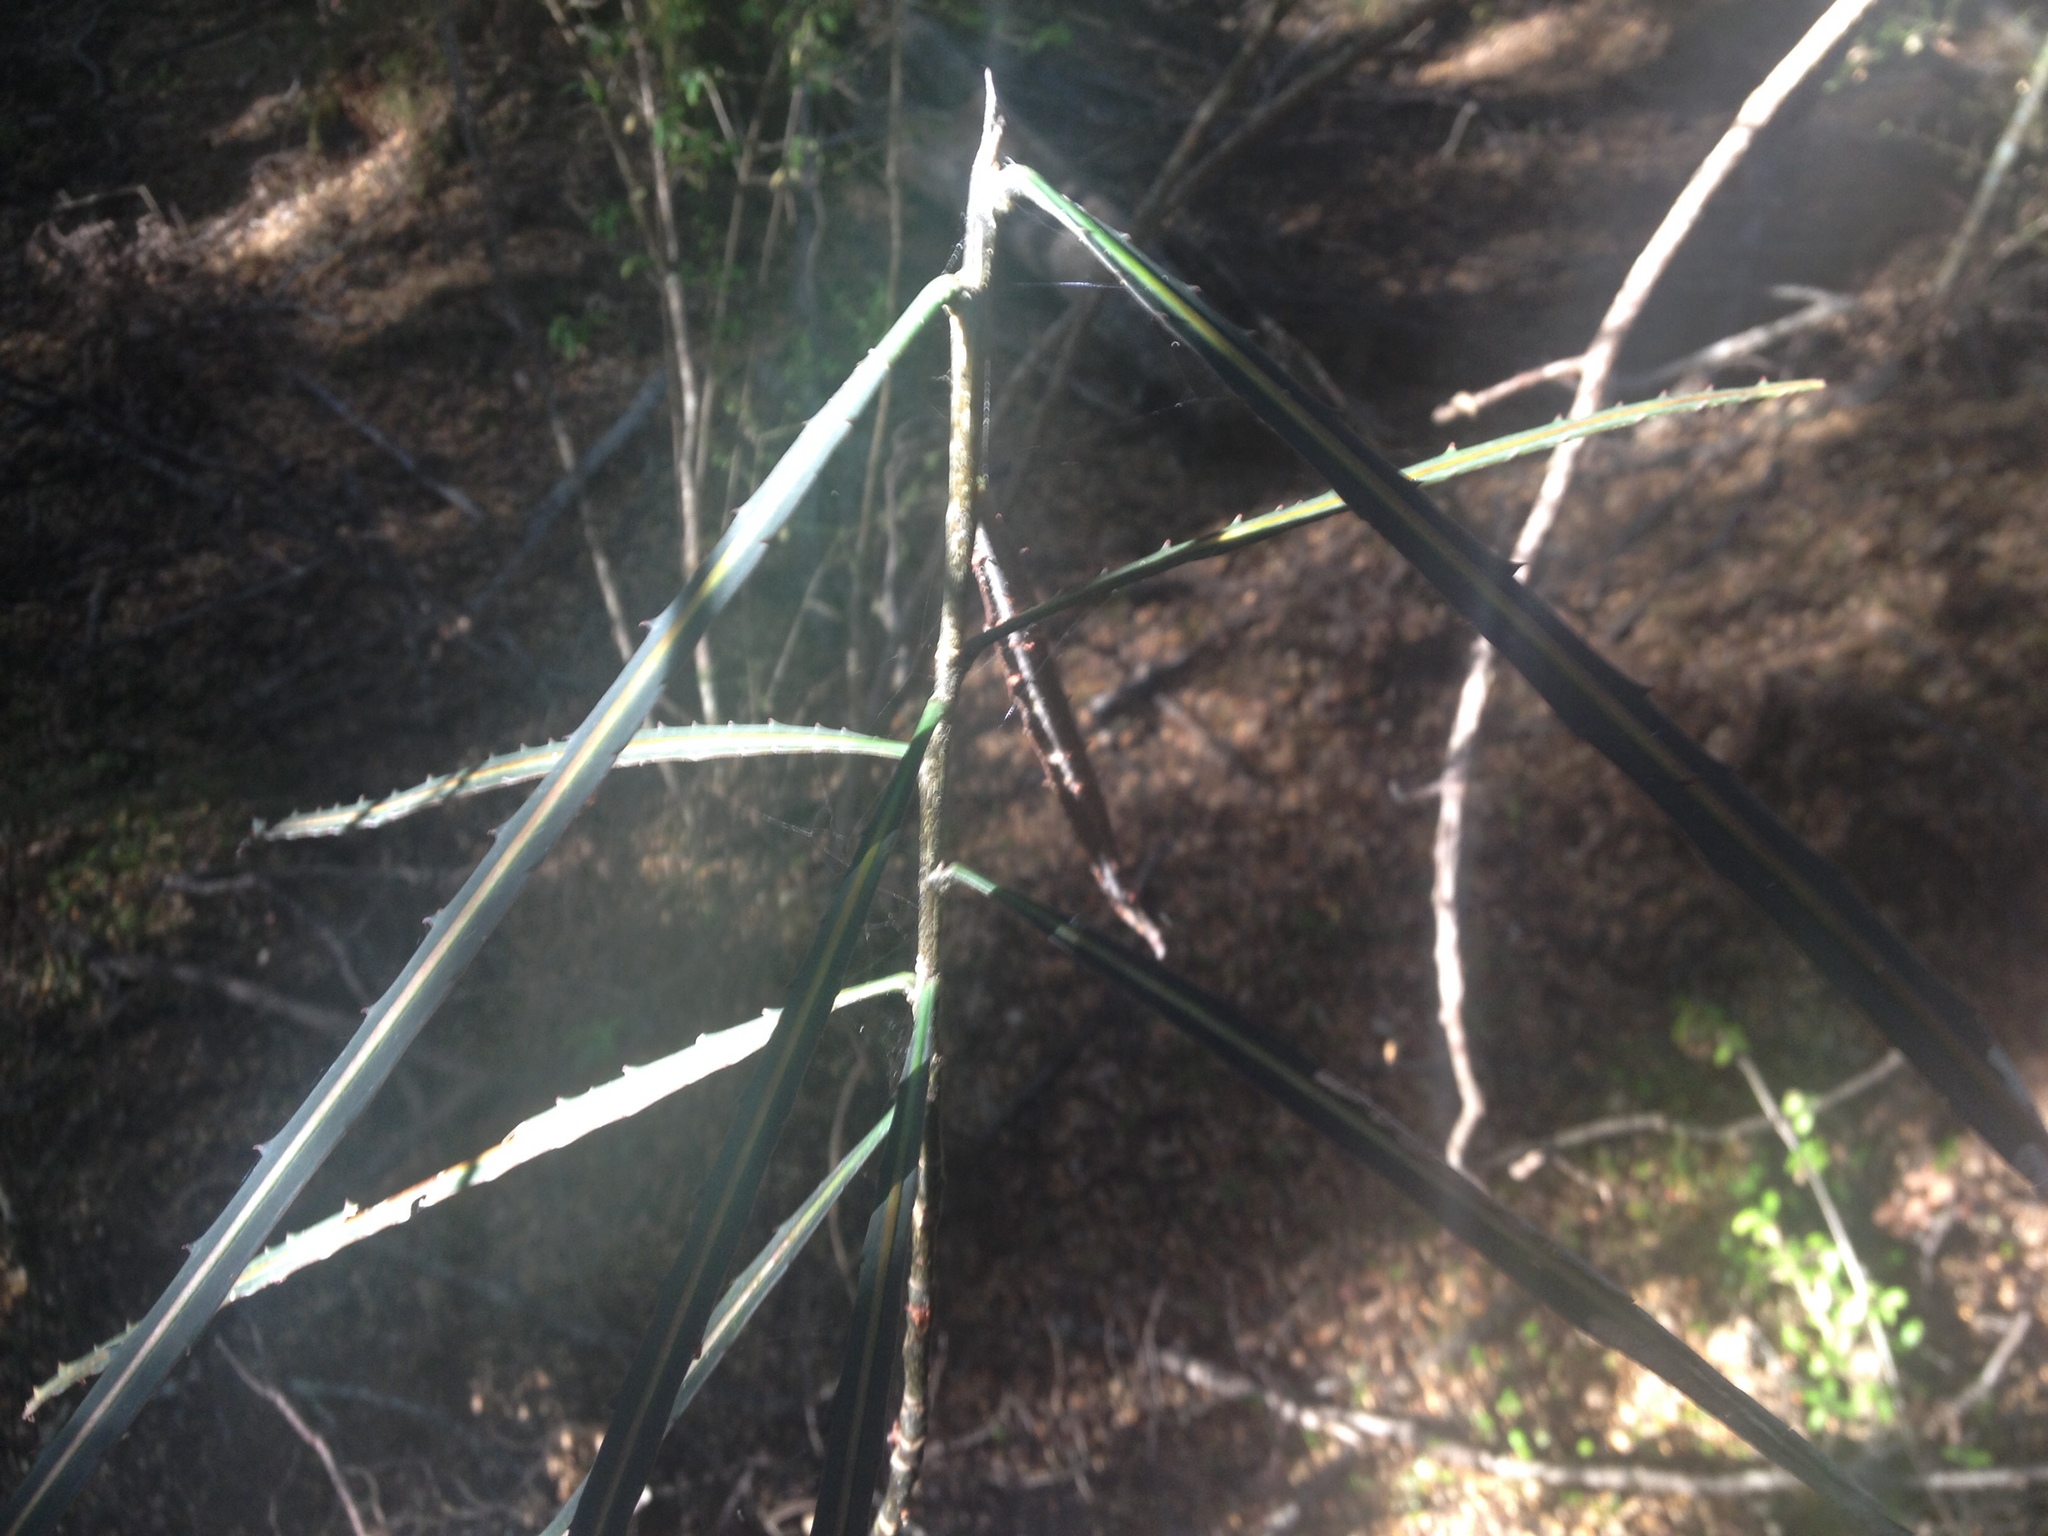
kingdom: Plantae
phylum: Tracheophyta
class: Magnoliopsida
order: Apiales
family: Araliaceae
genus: Pseudopanax
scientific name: Pseudopanax crassifolius
